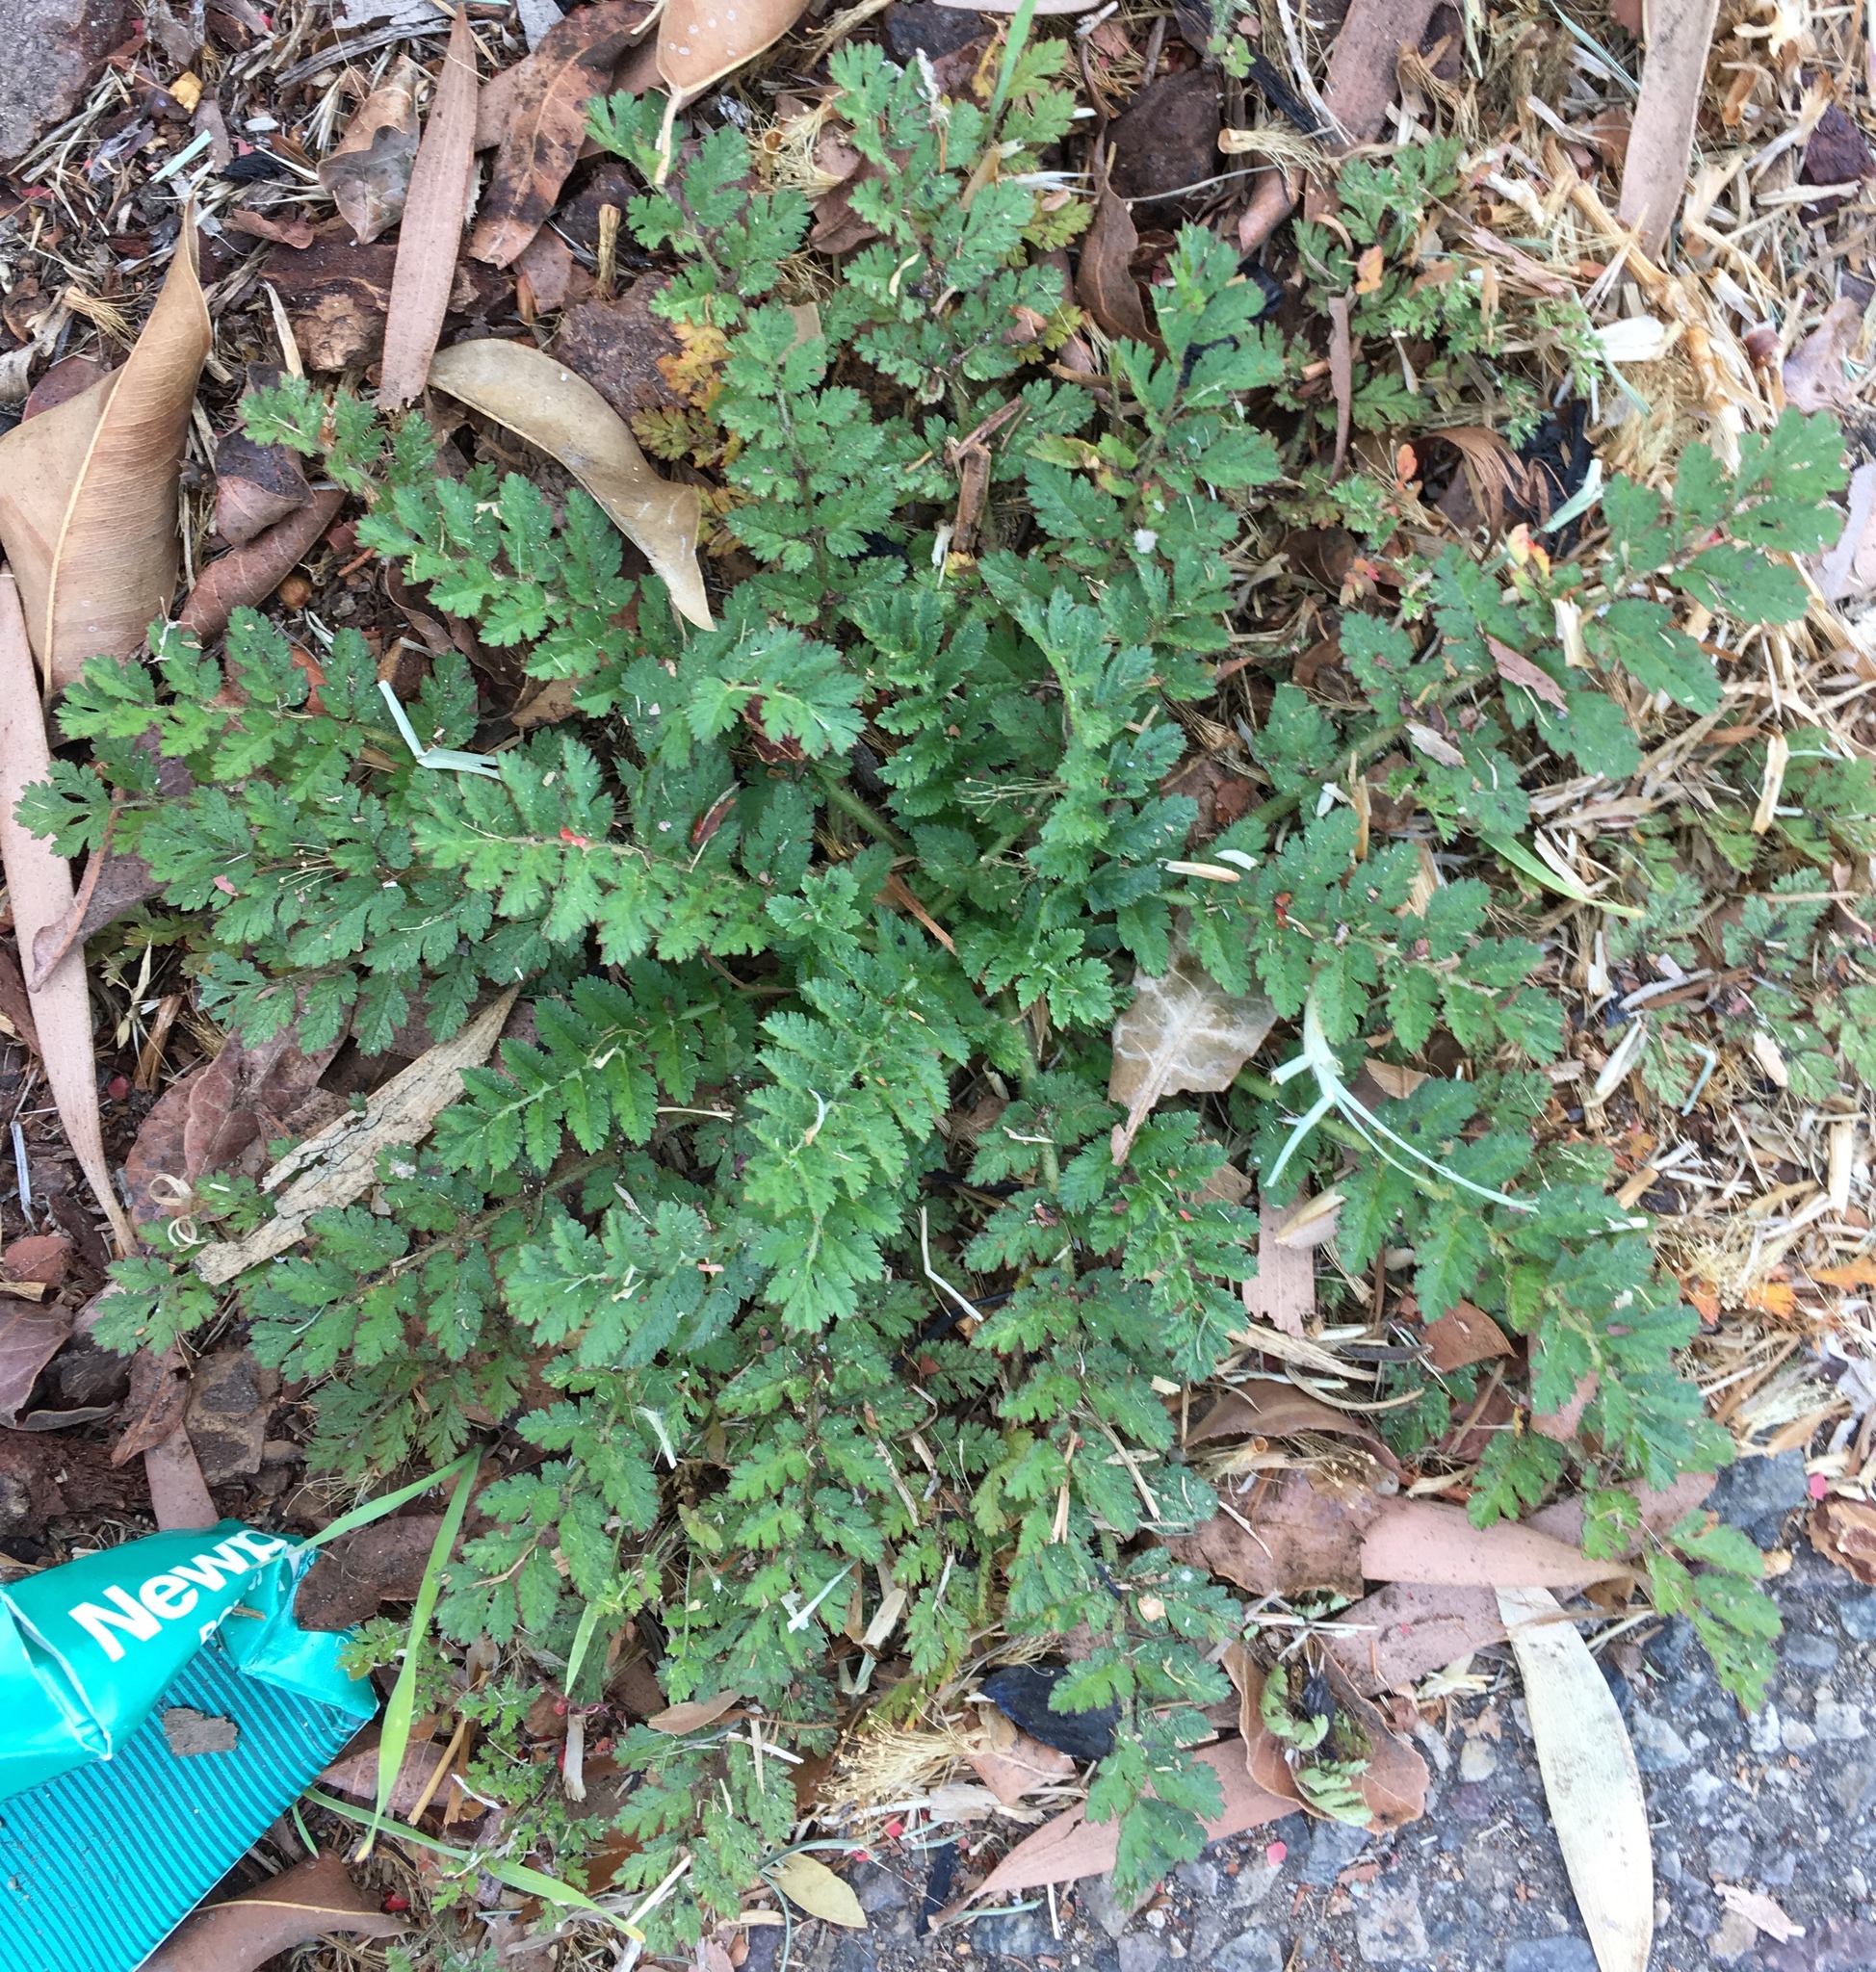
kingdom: Plantae
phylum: Tracheophyta
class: Magnoliopsida
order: Geraniales
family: Geraniaceae
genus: Erodium
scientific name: Erodium cicutarium
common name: Common stork's-bill
